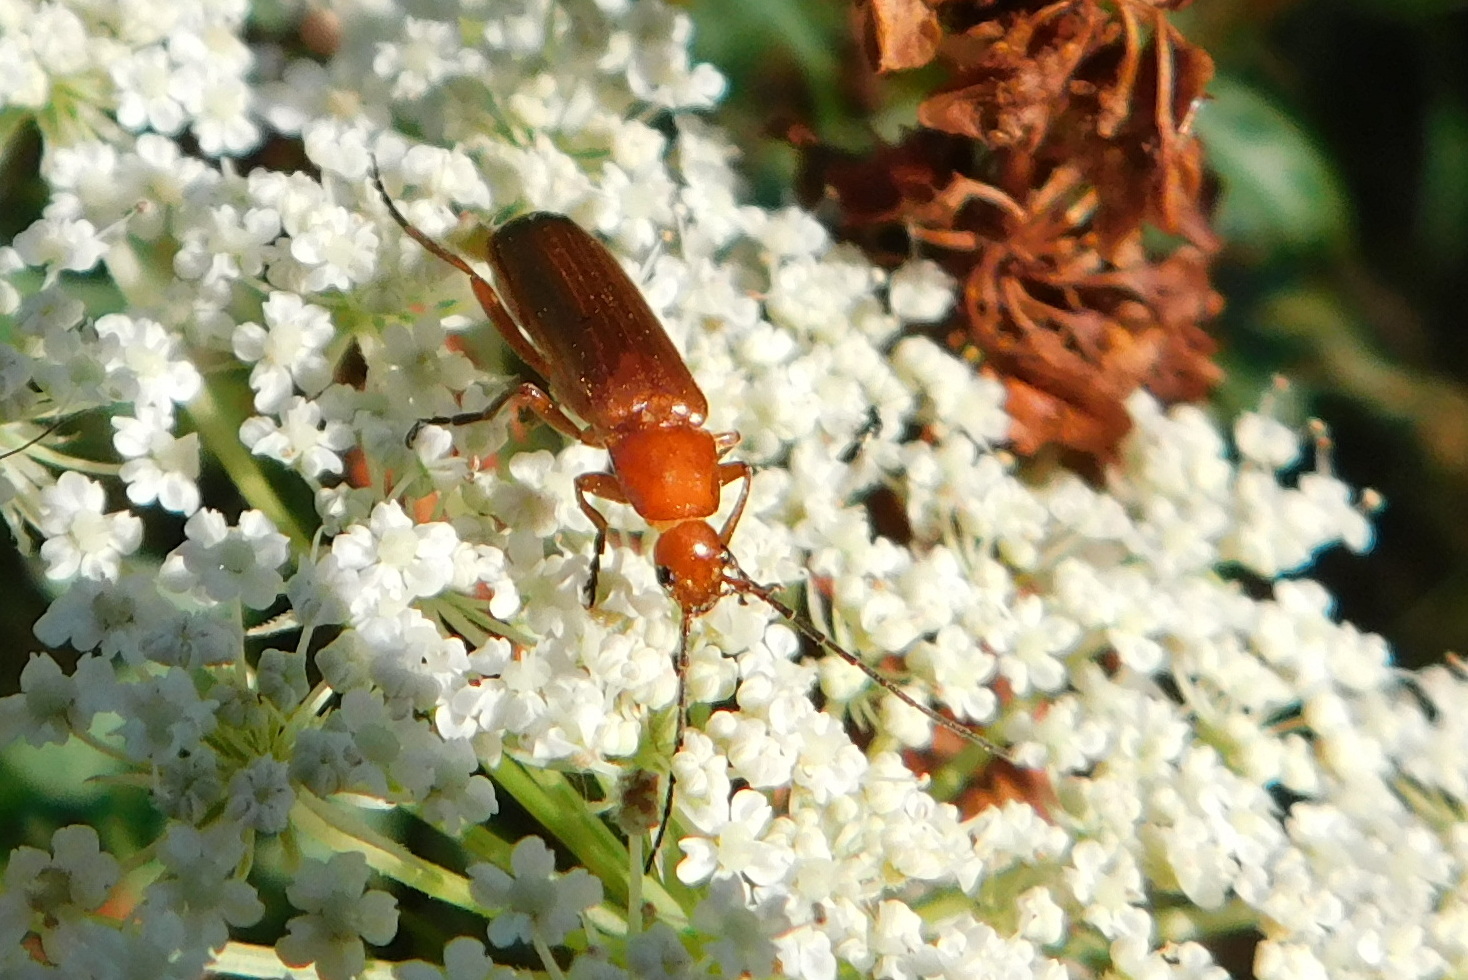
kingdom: Animalia
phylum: Arthropoda
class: Insecta
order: Coleoptera
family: Cantharidae
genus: Rhagonycha
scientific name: Rhagonycha fulva
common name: Common red soldier beetle
